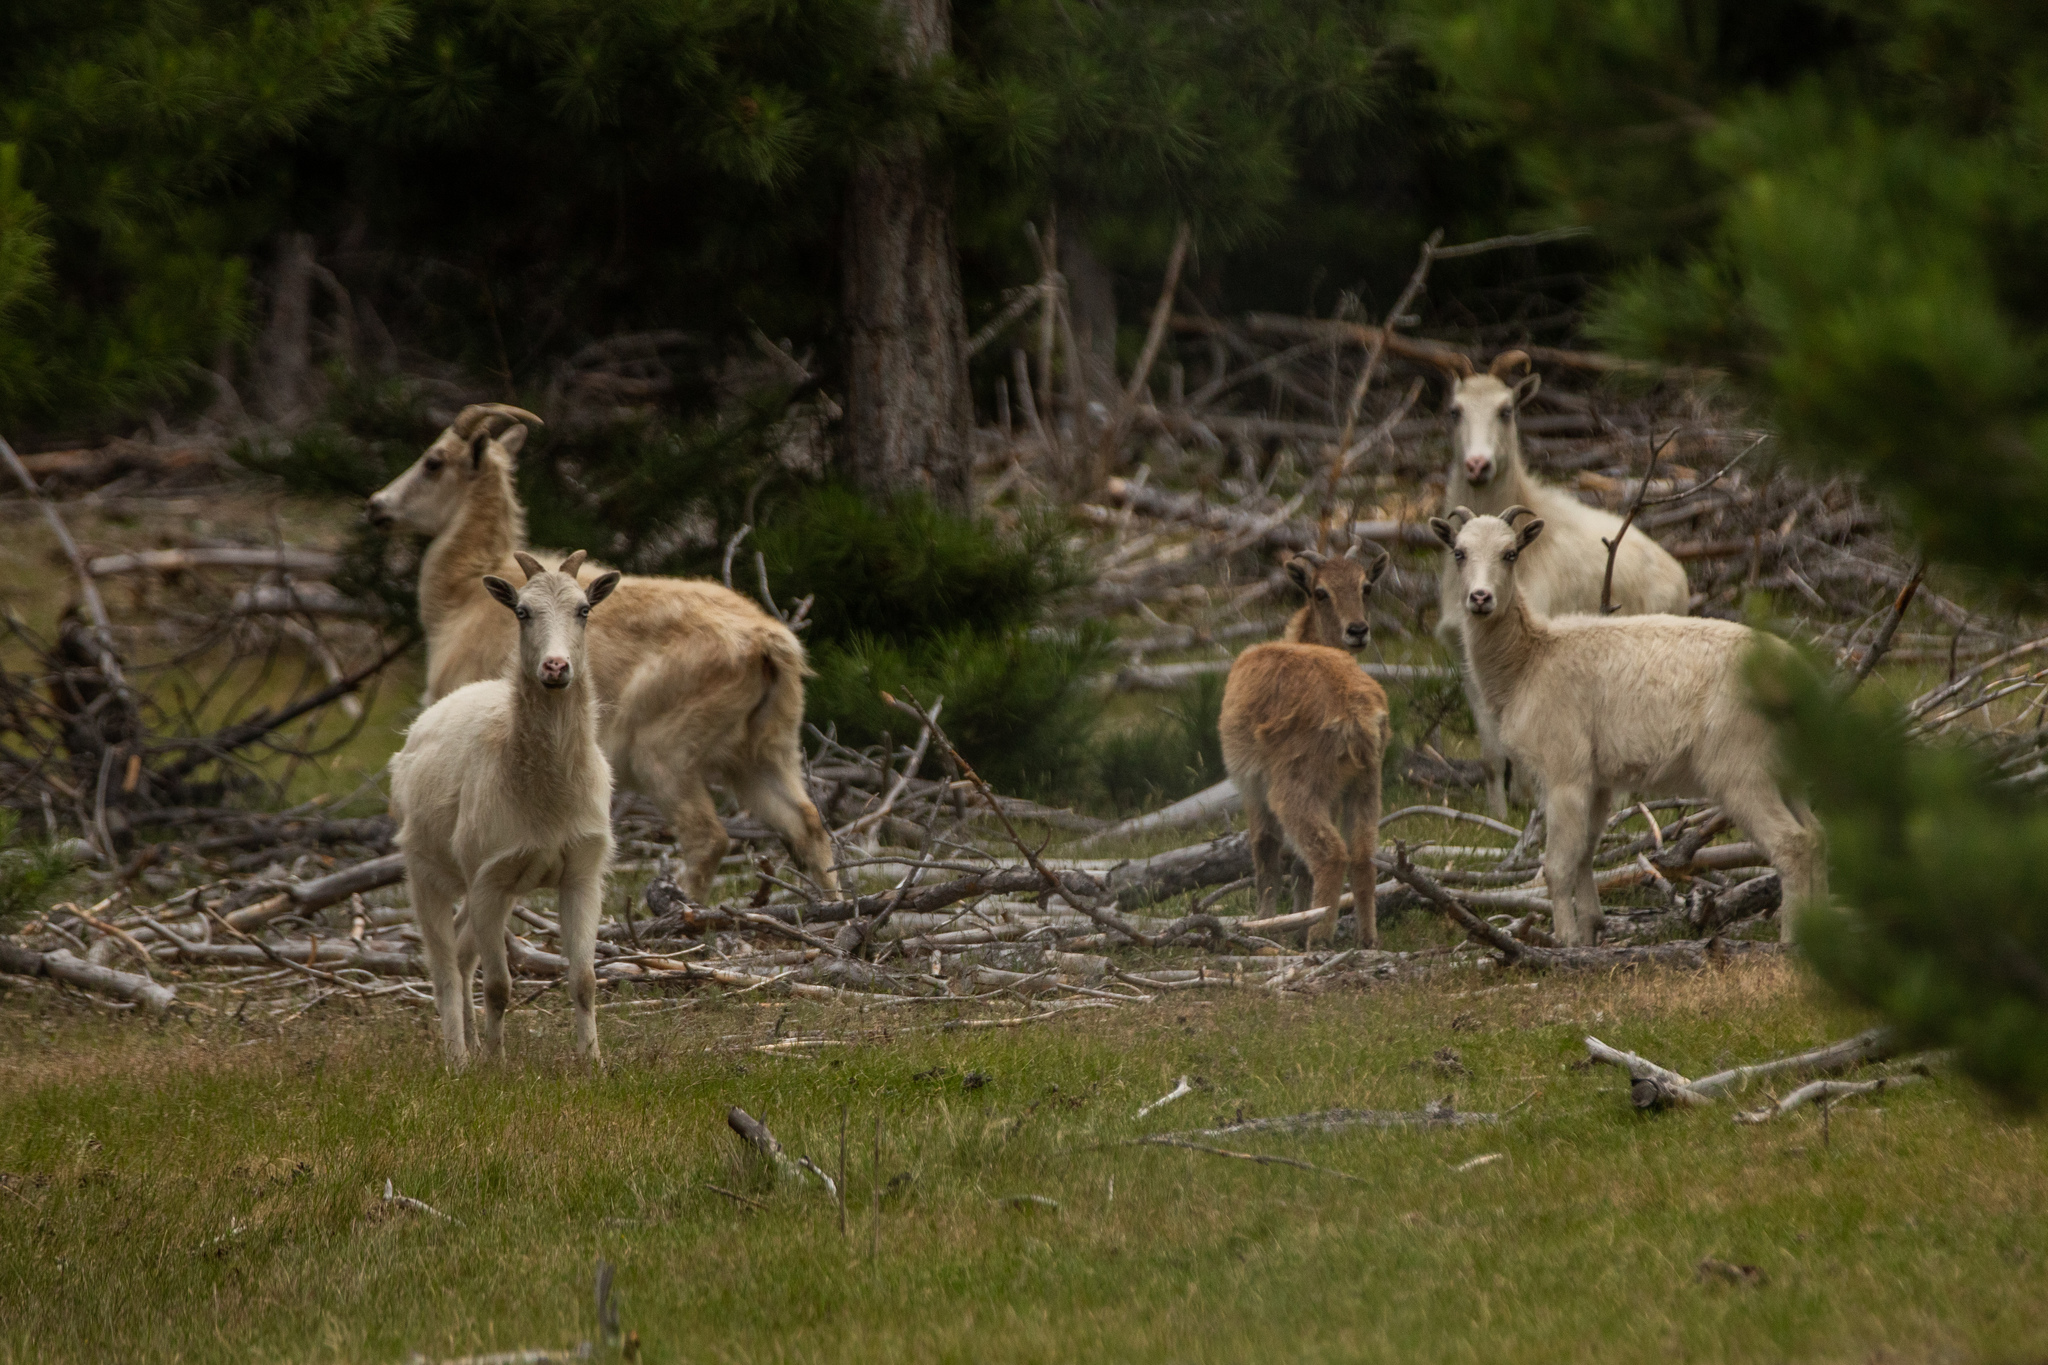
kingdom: Animalia
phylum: Chordata
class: Mammalia
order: Artiodactyla
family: Bovidae
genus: Hemitragus
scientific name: Hemitragus jemlahicus
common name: Himalayan tahr
